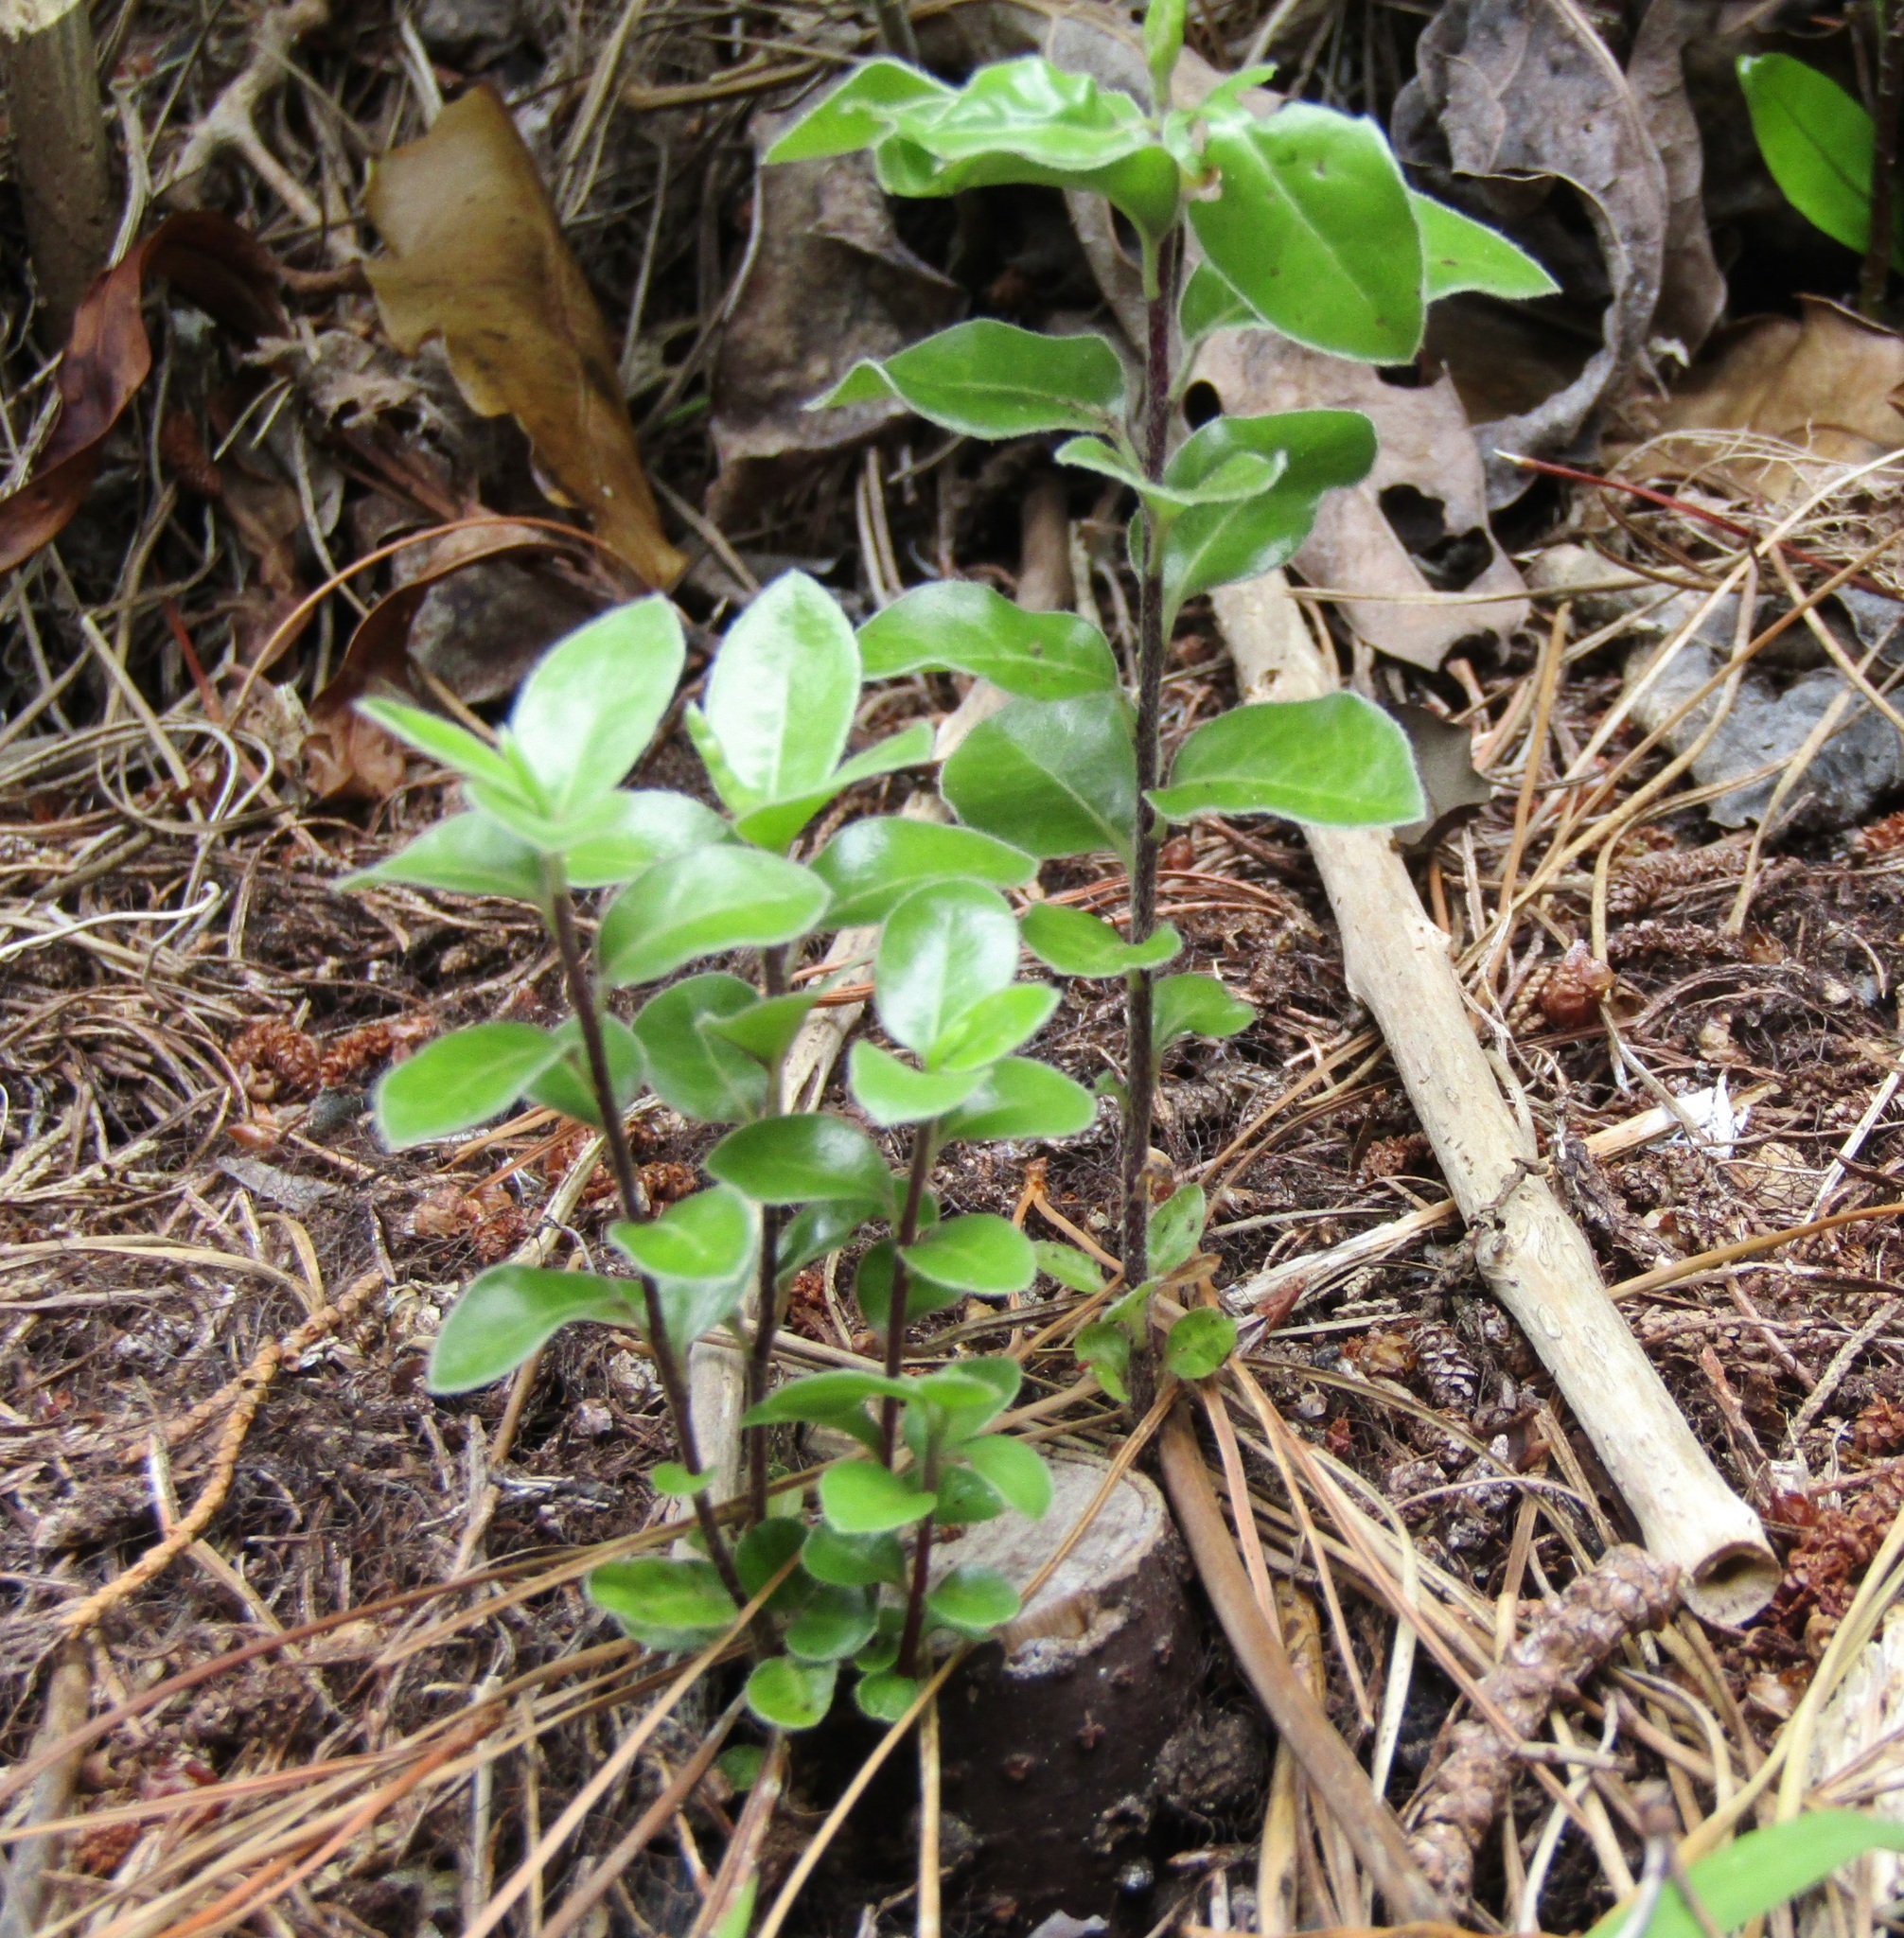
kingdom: Plantae
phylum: Tracheophyta
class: Magnoliopsida
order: Apiales
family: Pittosporaceae
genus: Pittosporum
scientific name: Pittosporum tenuifolium
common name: Kohuhu
